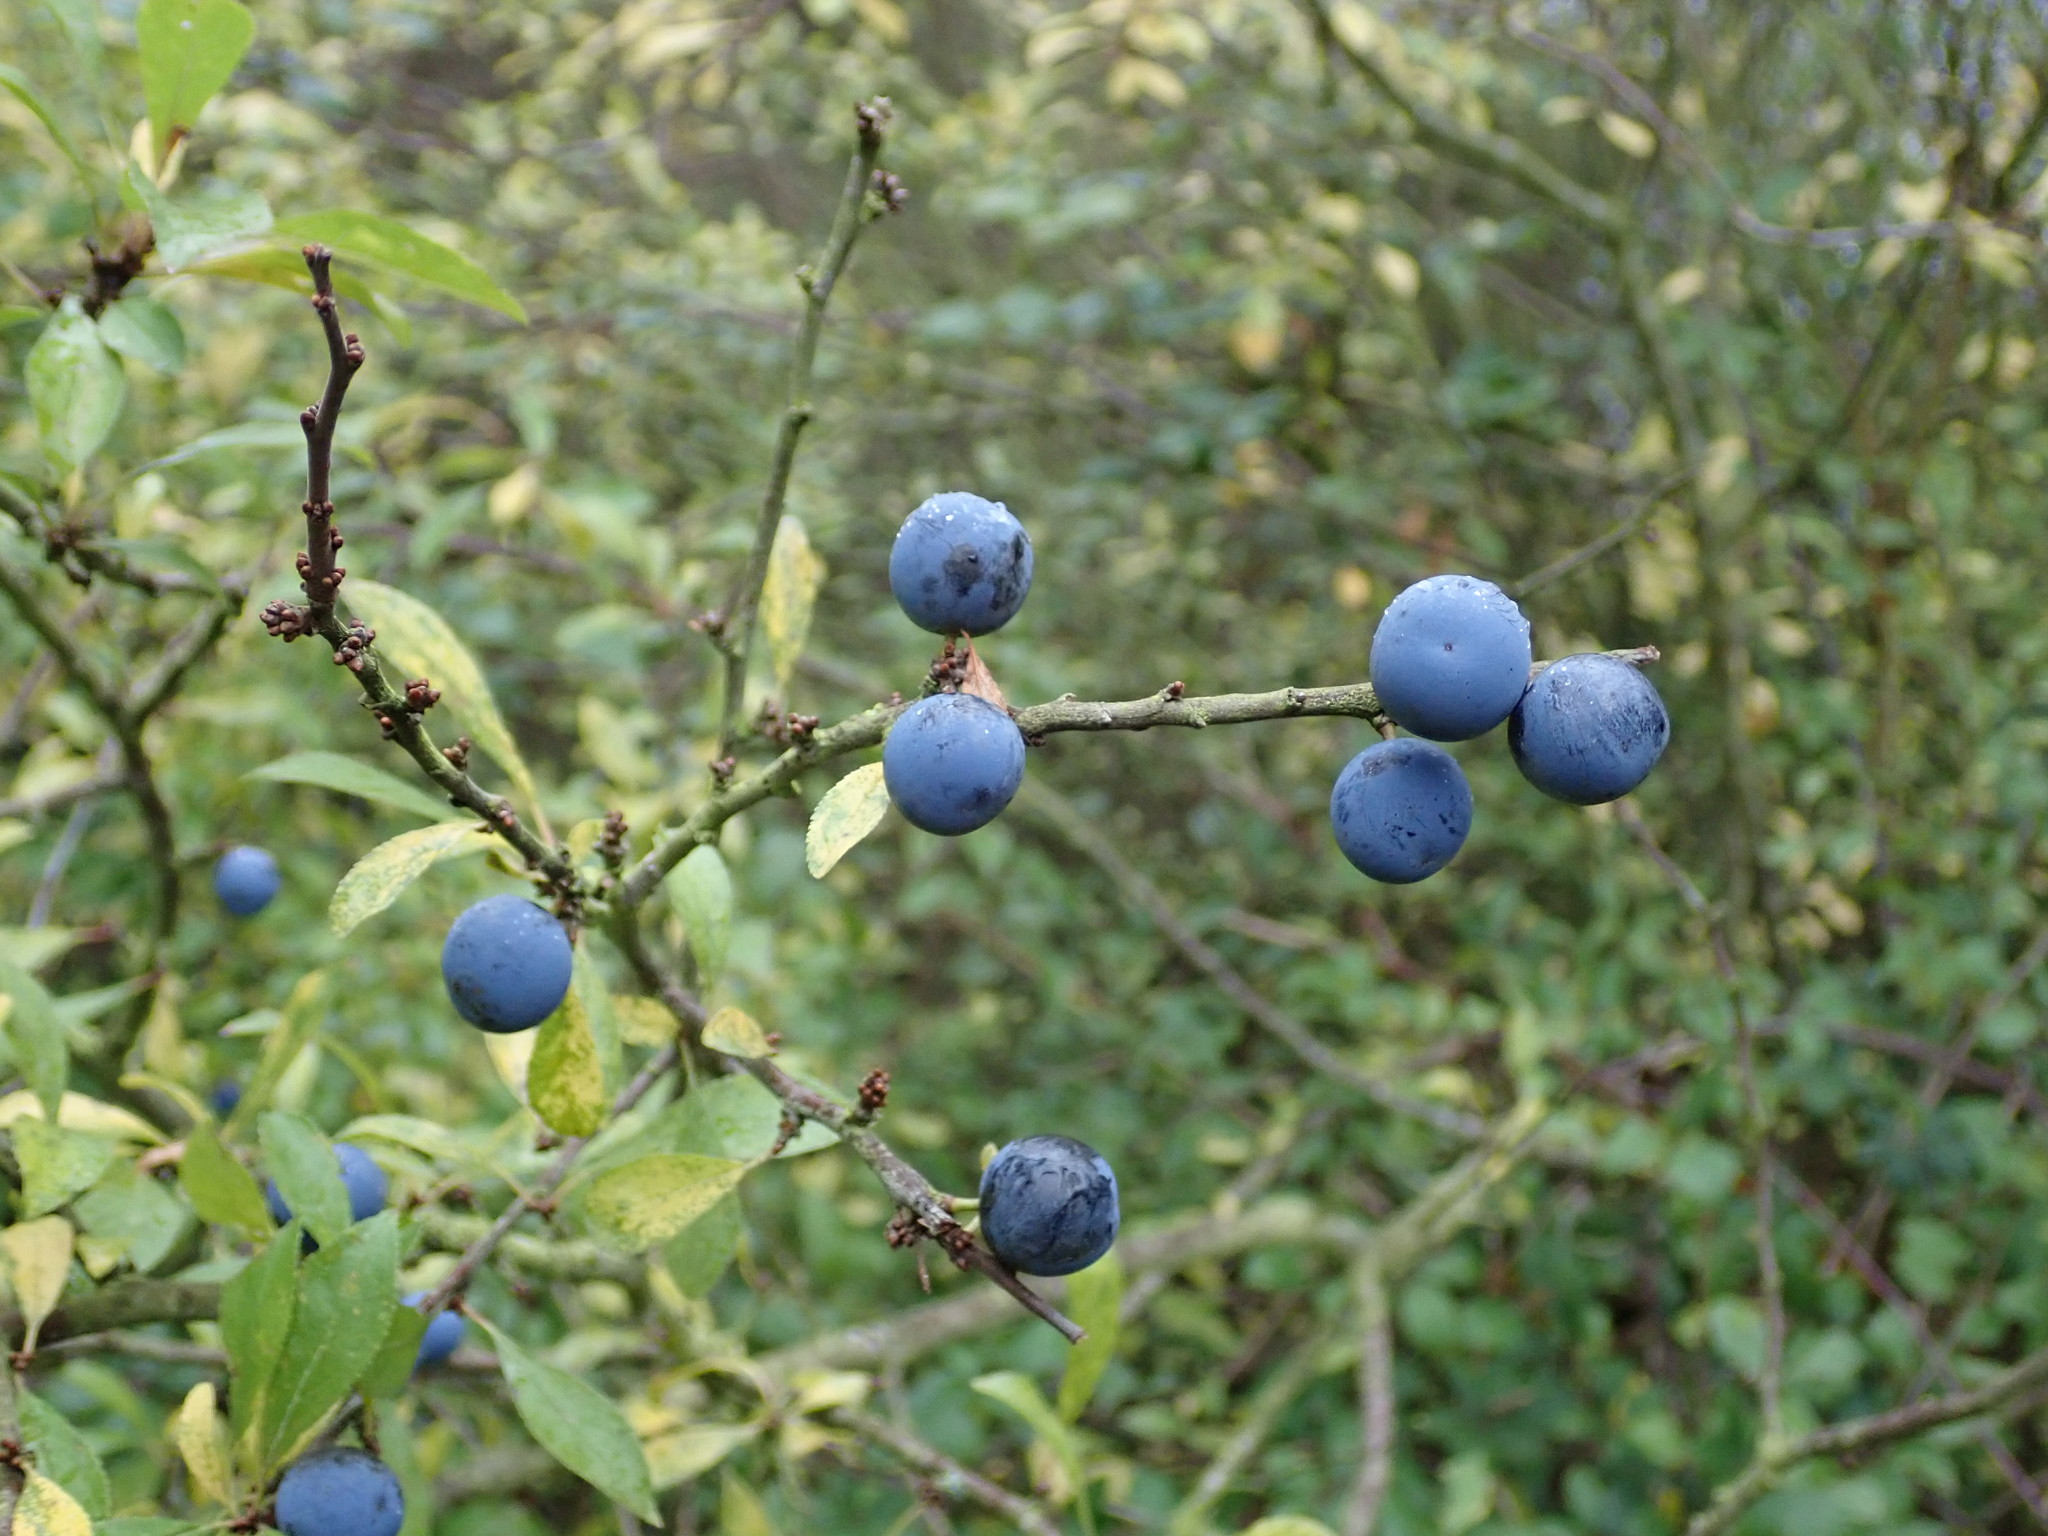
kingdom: Plantae
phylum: Tracheophyta
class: Magnoliopsida
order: Rosales
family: Rosaceae
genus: Prunus
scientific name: Prunus spinosa
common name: Blackthorn
